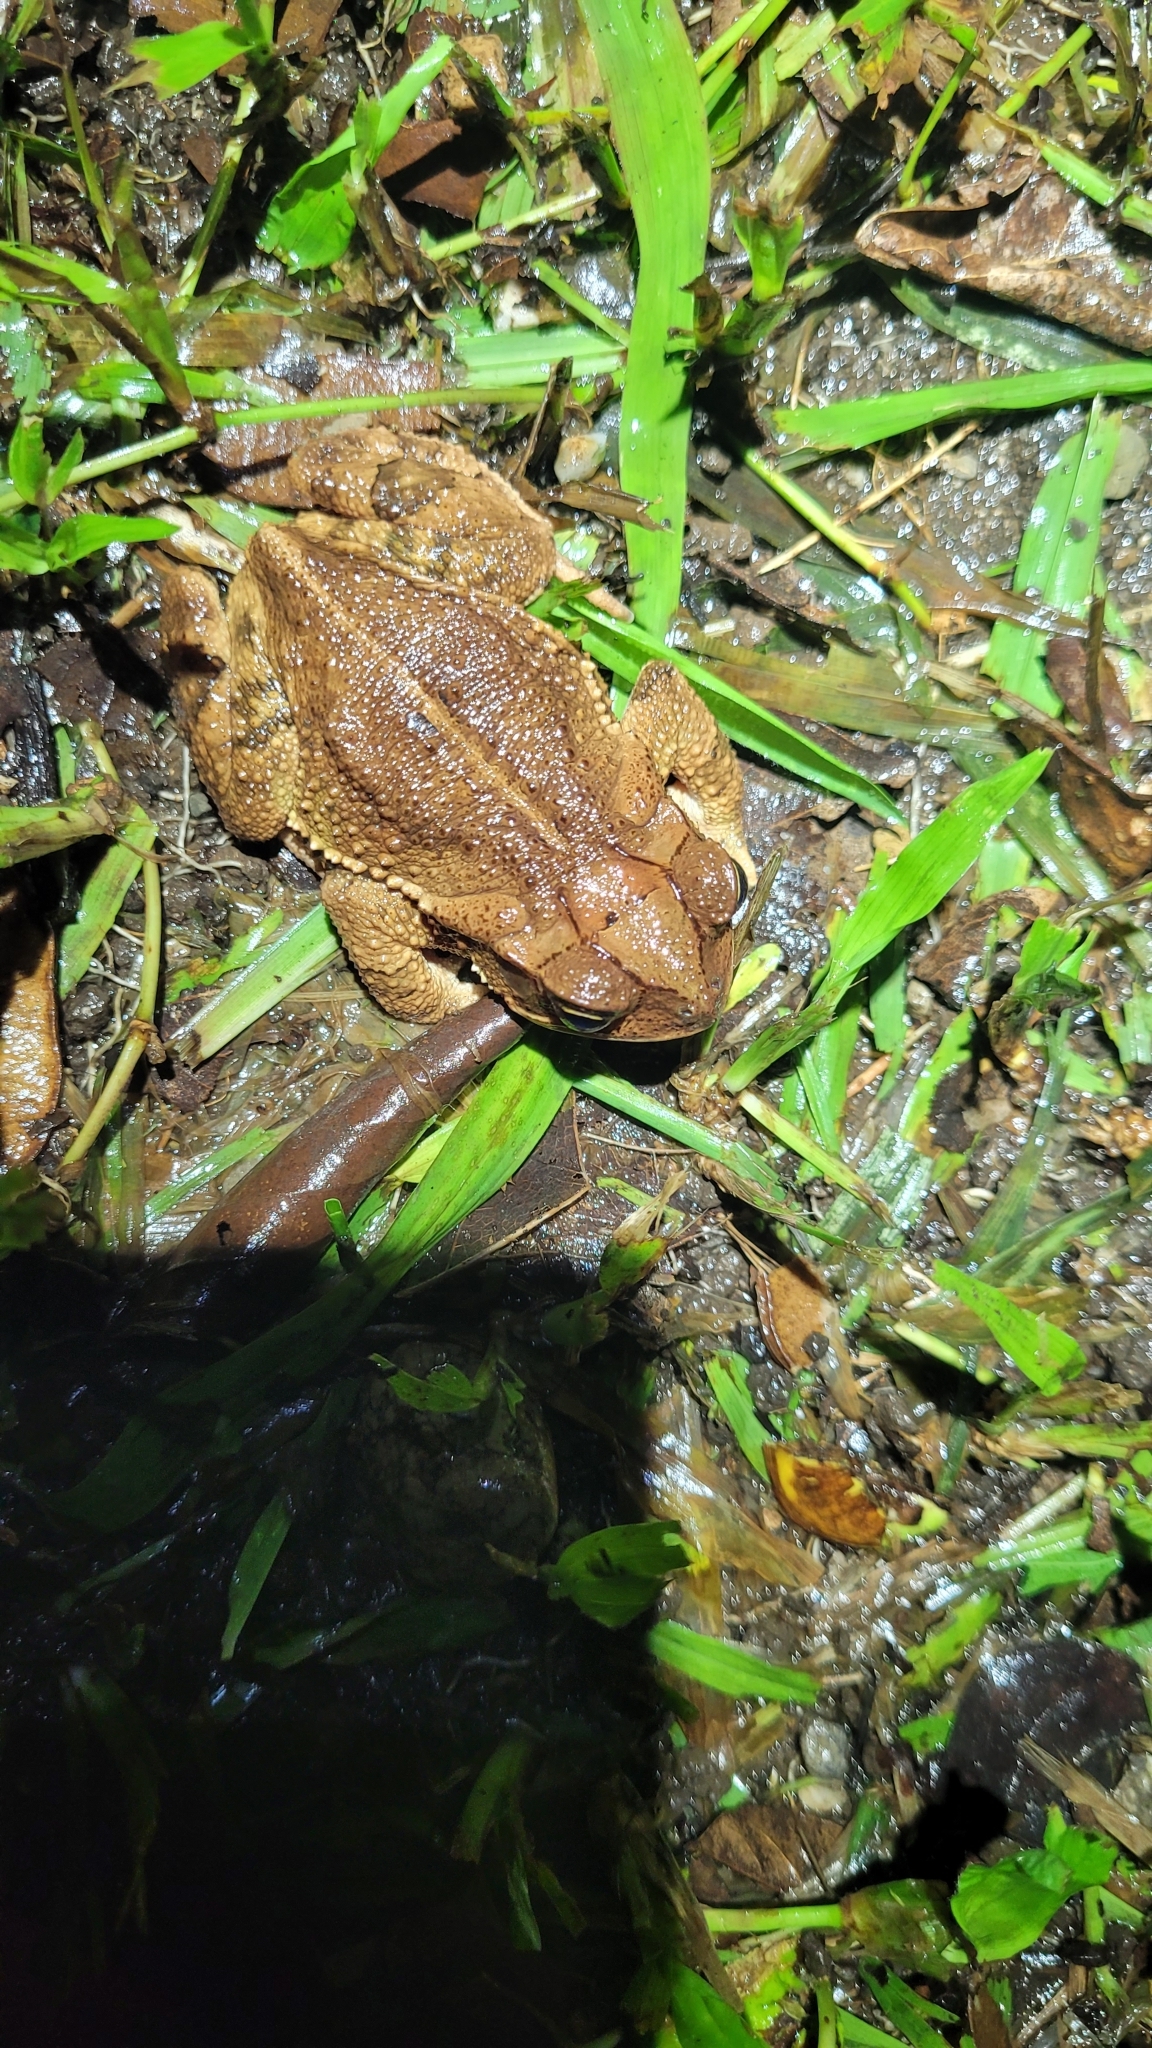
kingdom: Animalia
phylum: Chordata
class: Amphibia
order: Anura
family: Bufonidae
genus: Incilius
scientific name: Incilius valliceps
